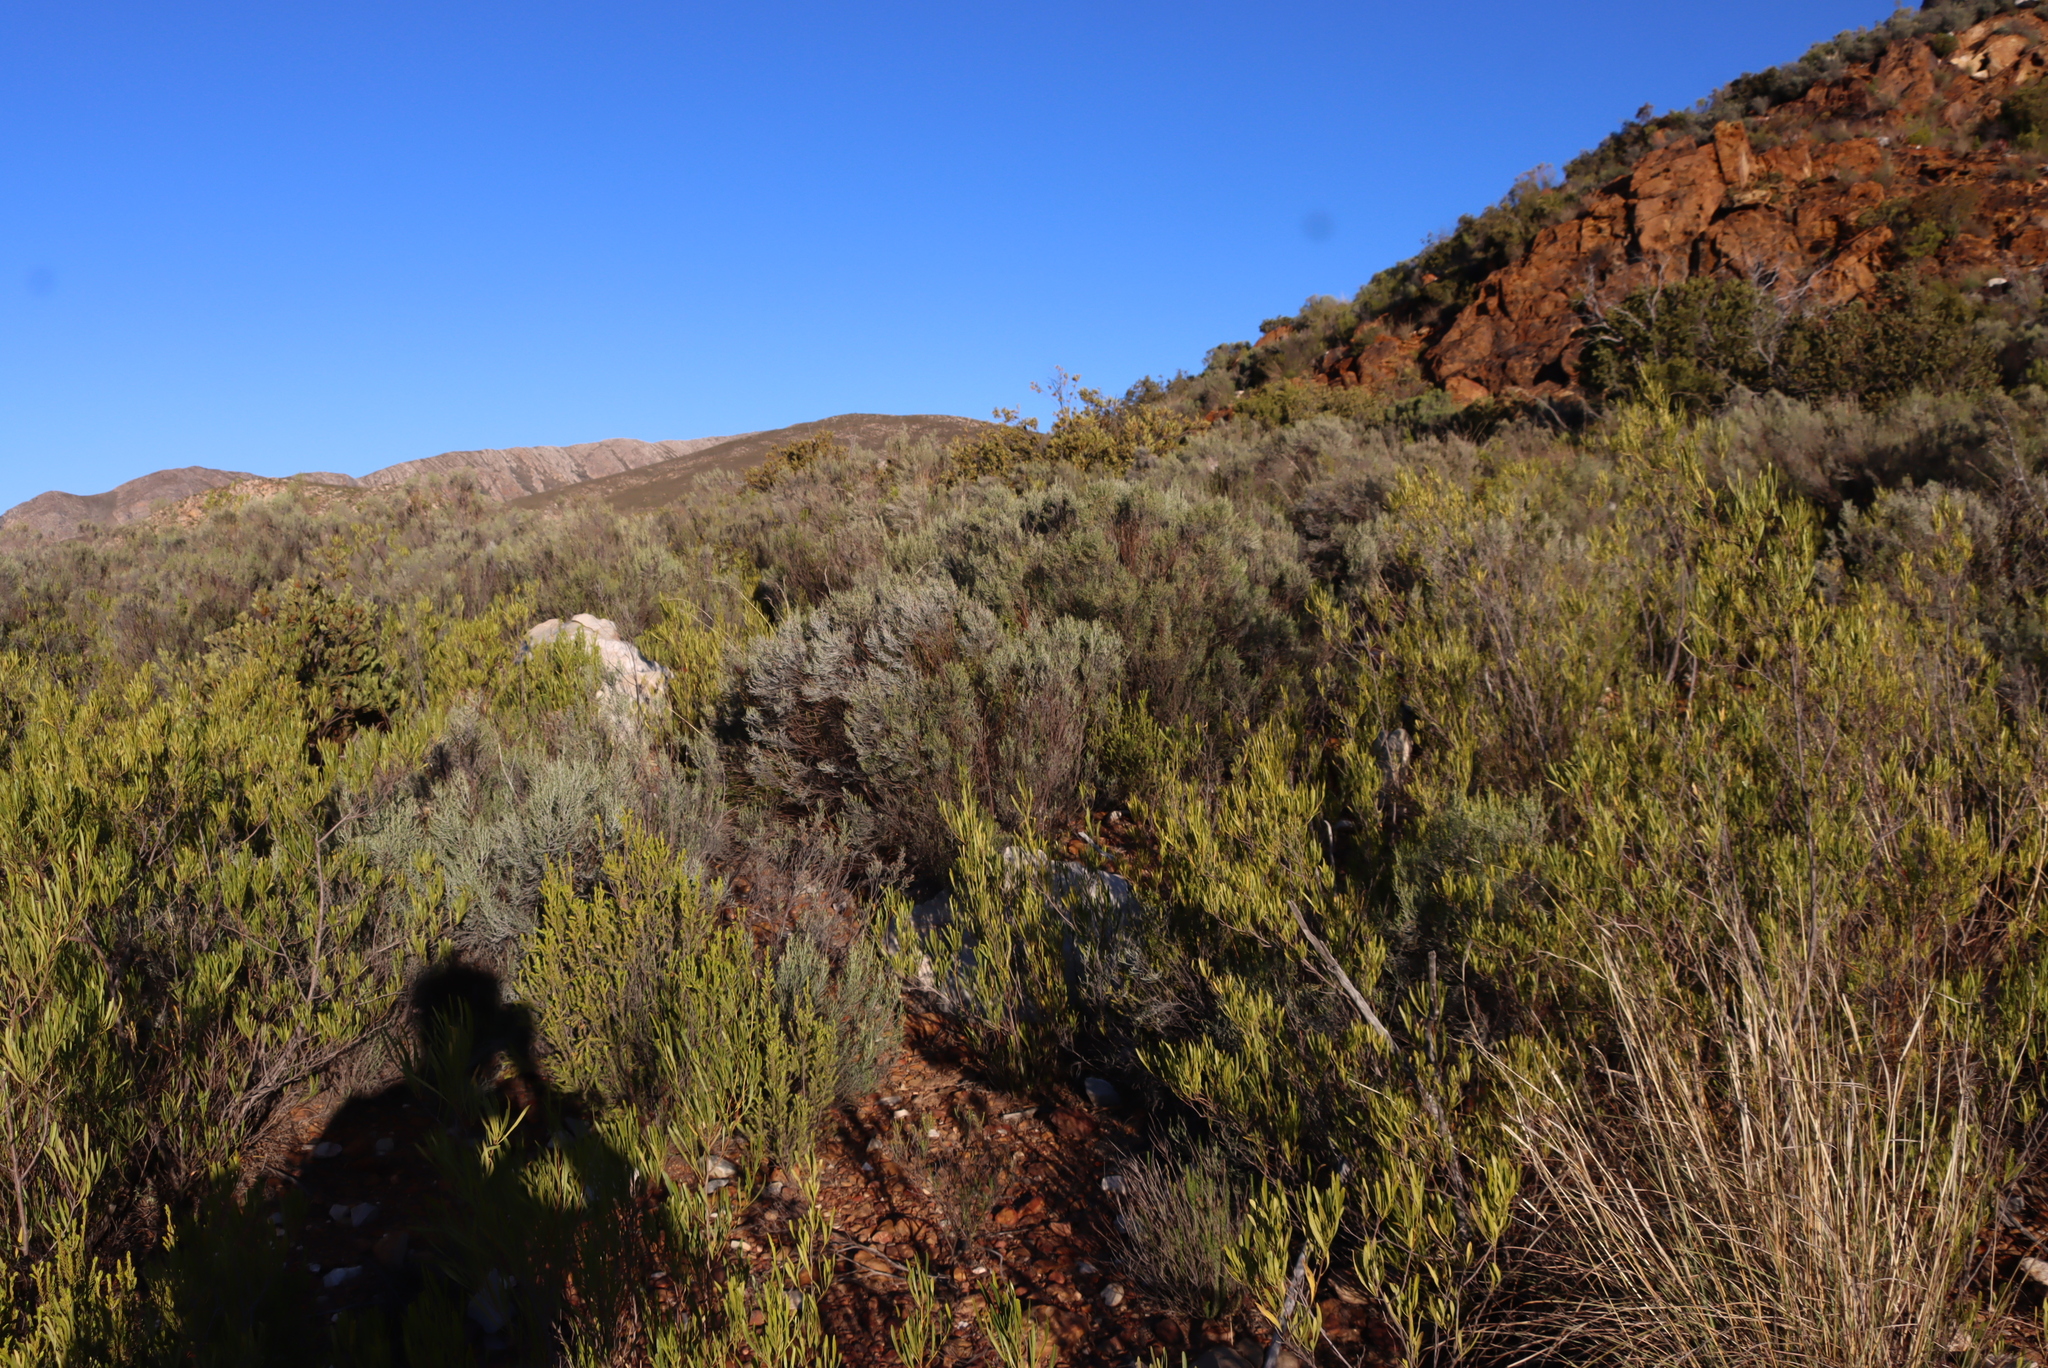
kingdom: Plantae
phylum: Tracheophyta
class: Magnoliopsida
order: Asterales
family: Asteraceae
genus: Dicerothamnus
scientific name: Dicerothamnus rhinocerotis
